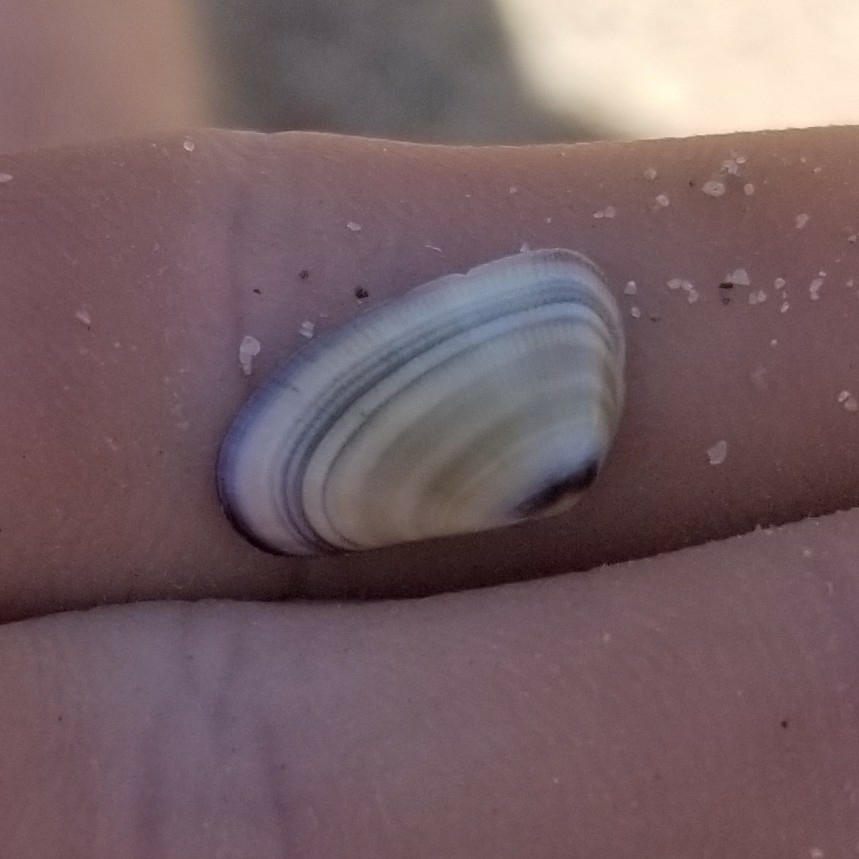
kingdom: Animalia
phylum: Mollusca
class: Bivalvia
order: Cardiida
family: Donacidae
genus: Donax
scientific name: Donax gouldii
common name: Gould beanclam
